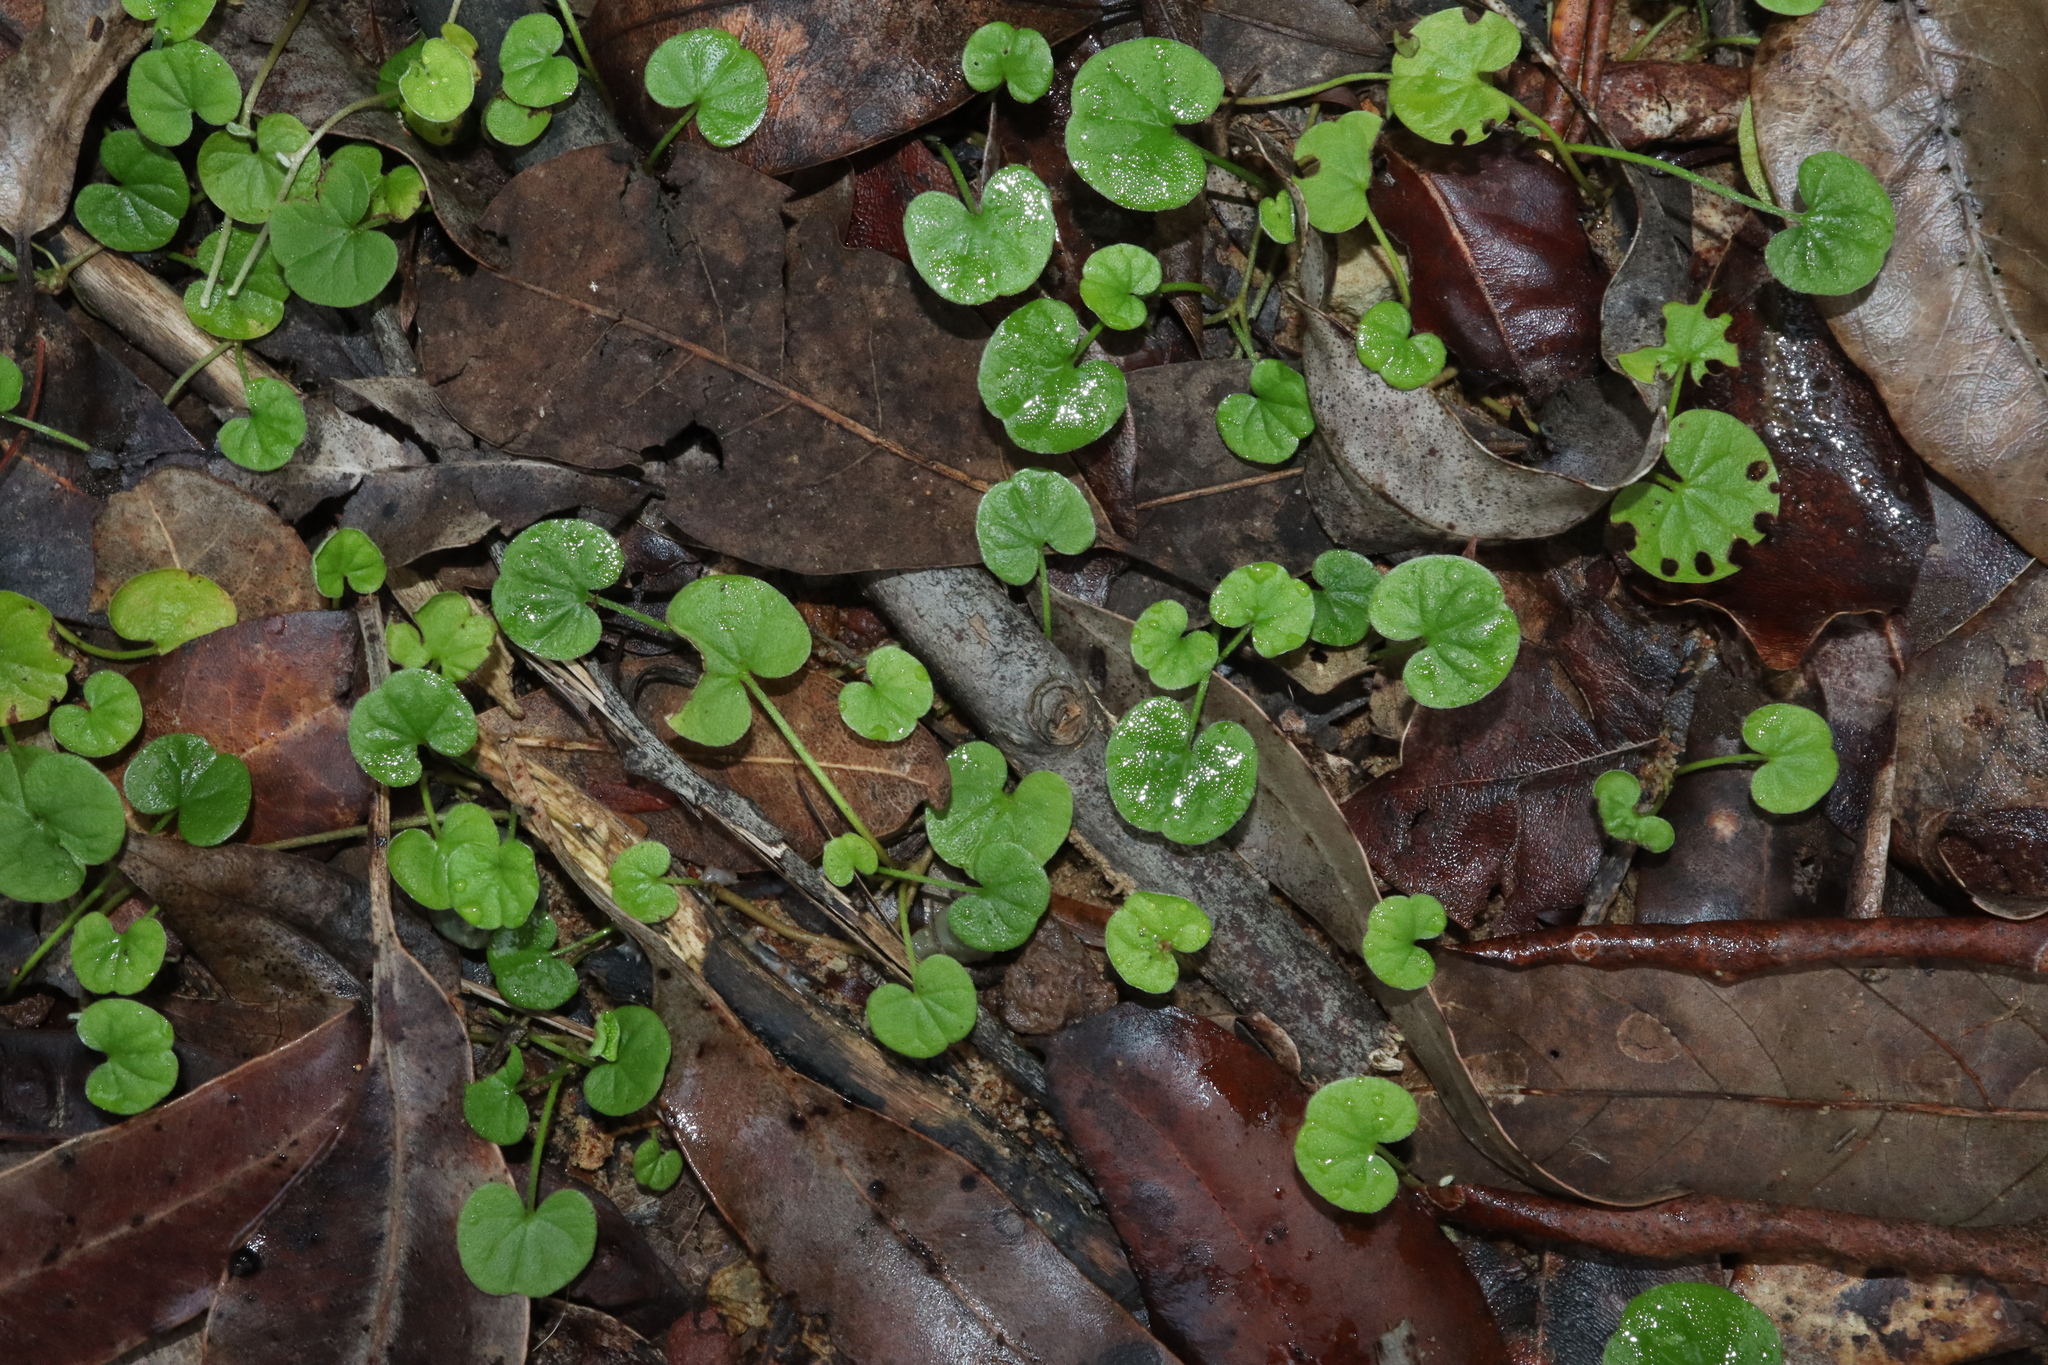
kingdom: Plantae
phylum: Tracheophyta
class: Magnoliopsida
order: Solanales
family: Convolvulaceae
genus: Dichondra
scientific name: Dichondra repens
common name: Kidneyweed
